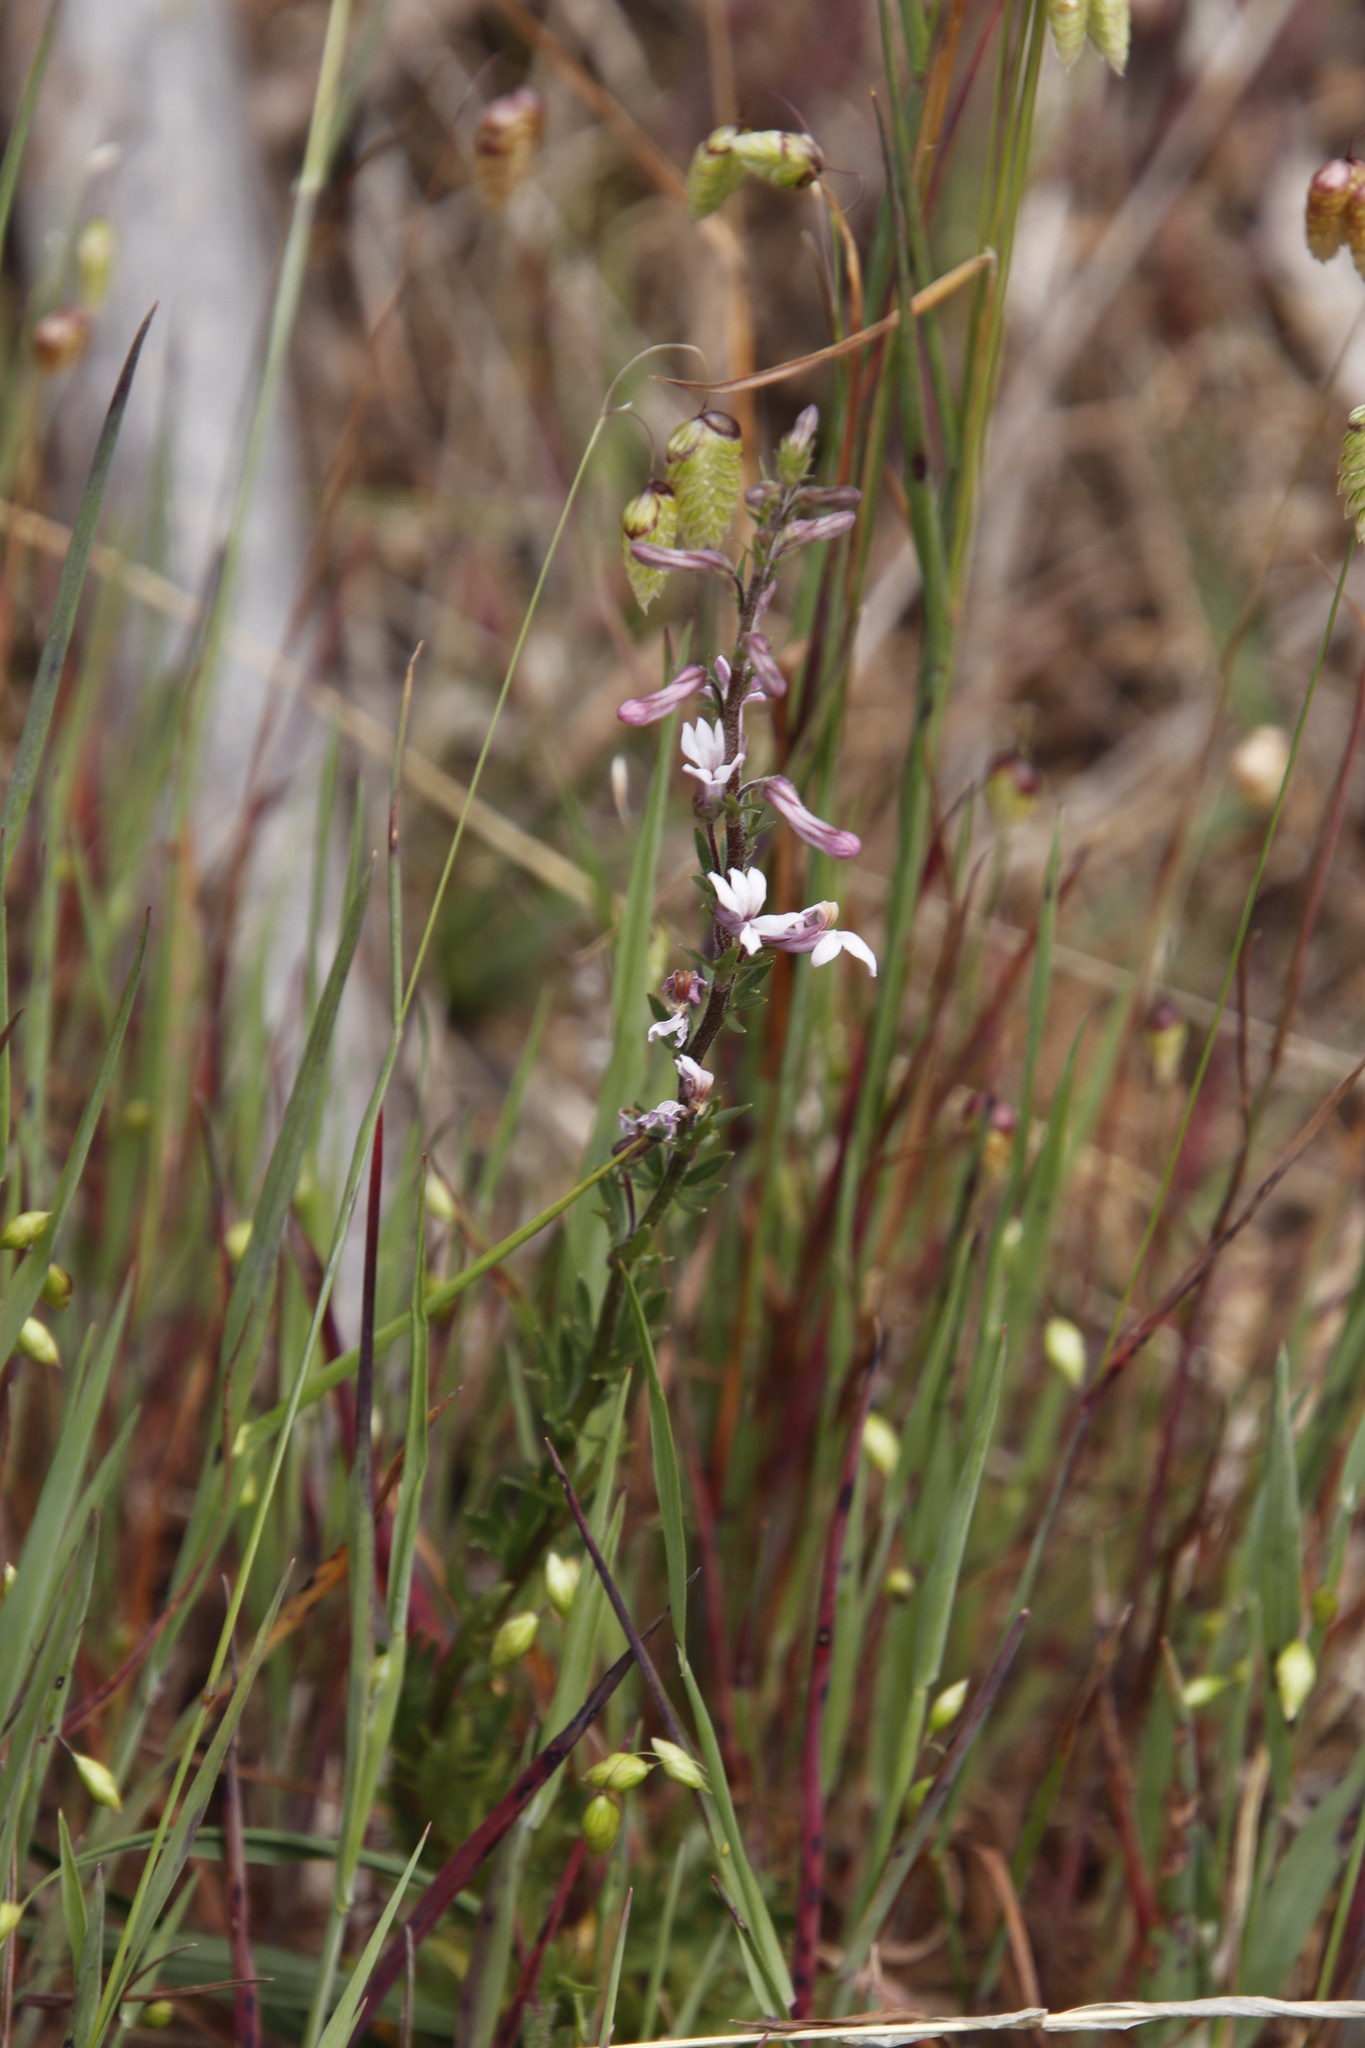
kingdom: Plantae
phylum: Tracheophyta
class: Magnoliopsida
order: Asterales
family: Campanulaceae
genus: Cyphia
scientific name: Cyphia bulbosa
